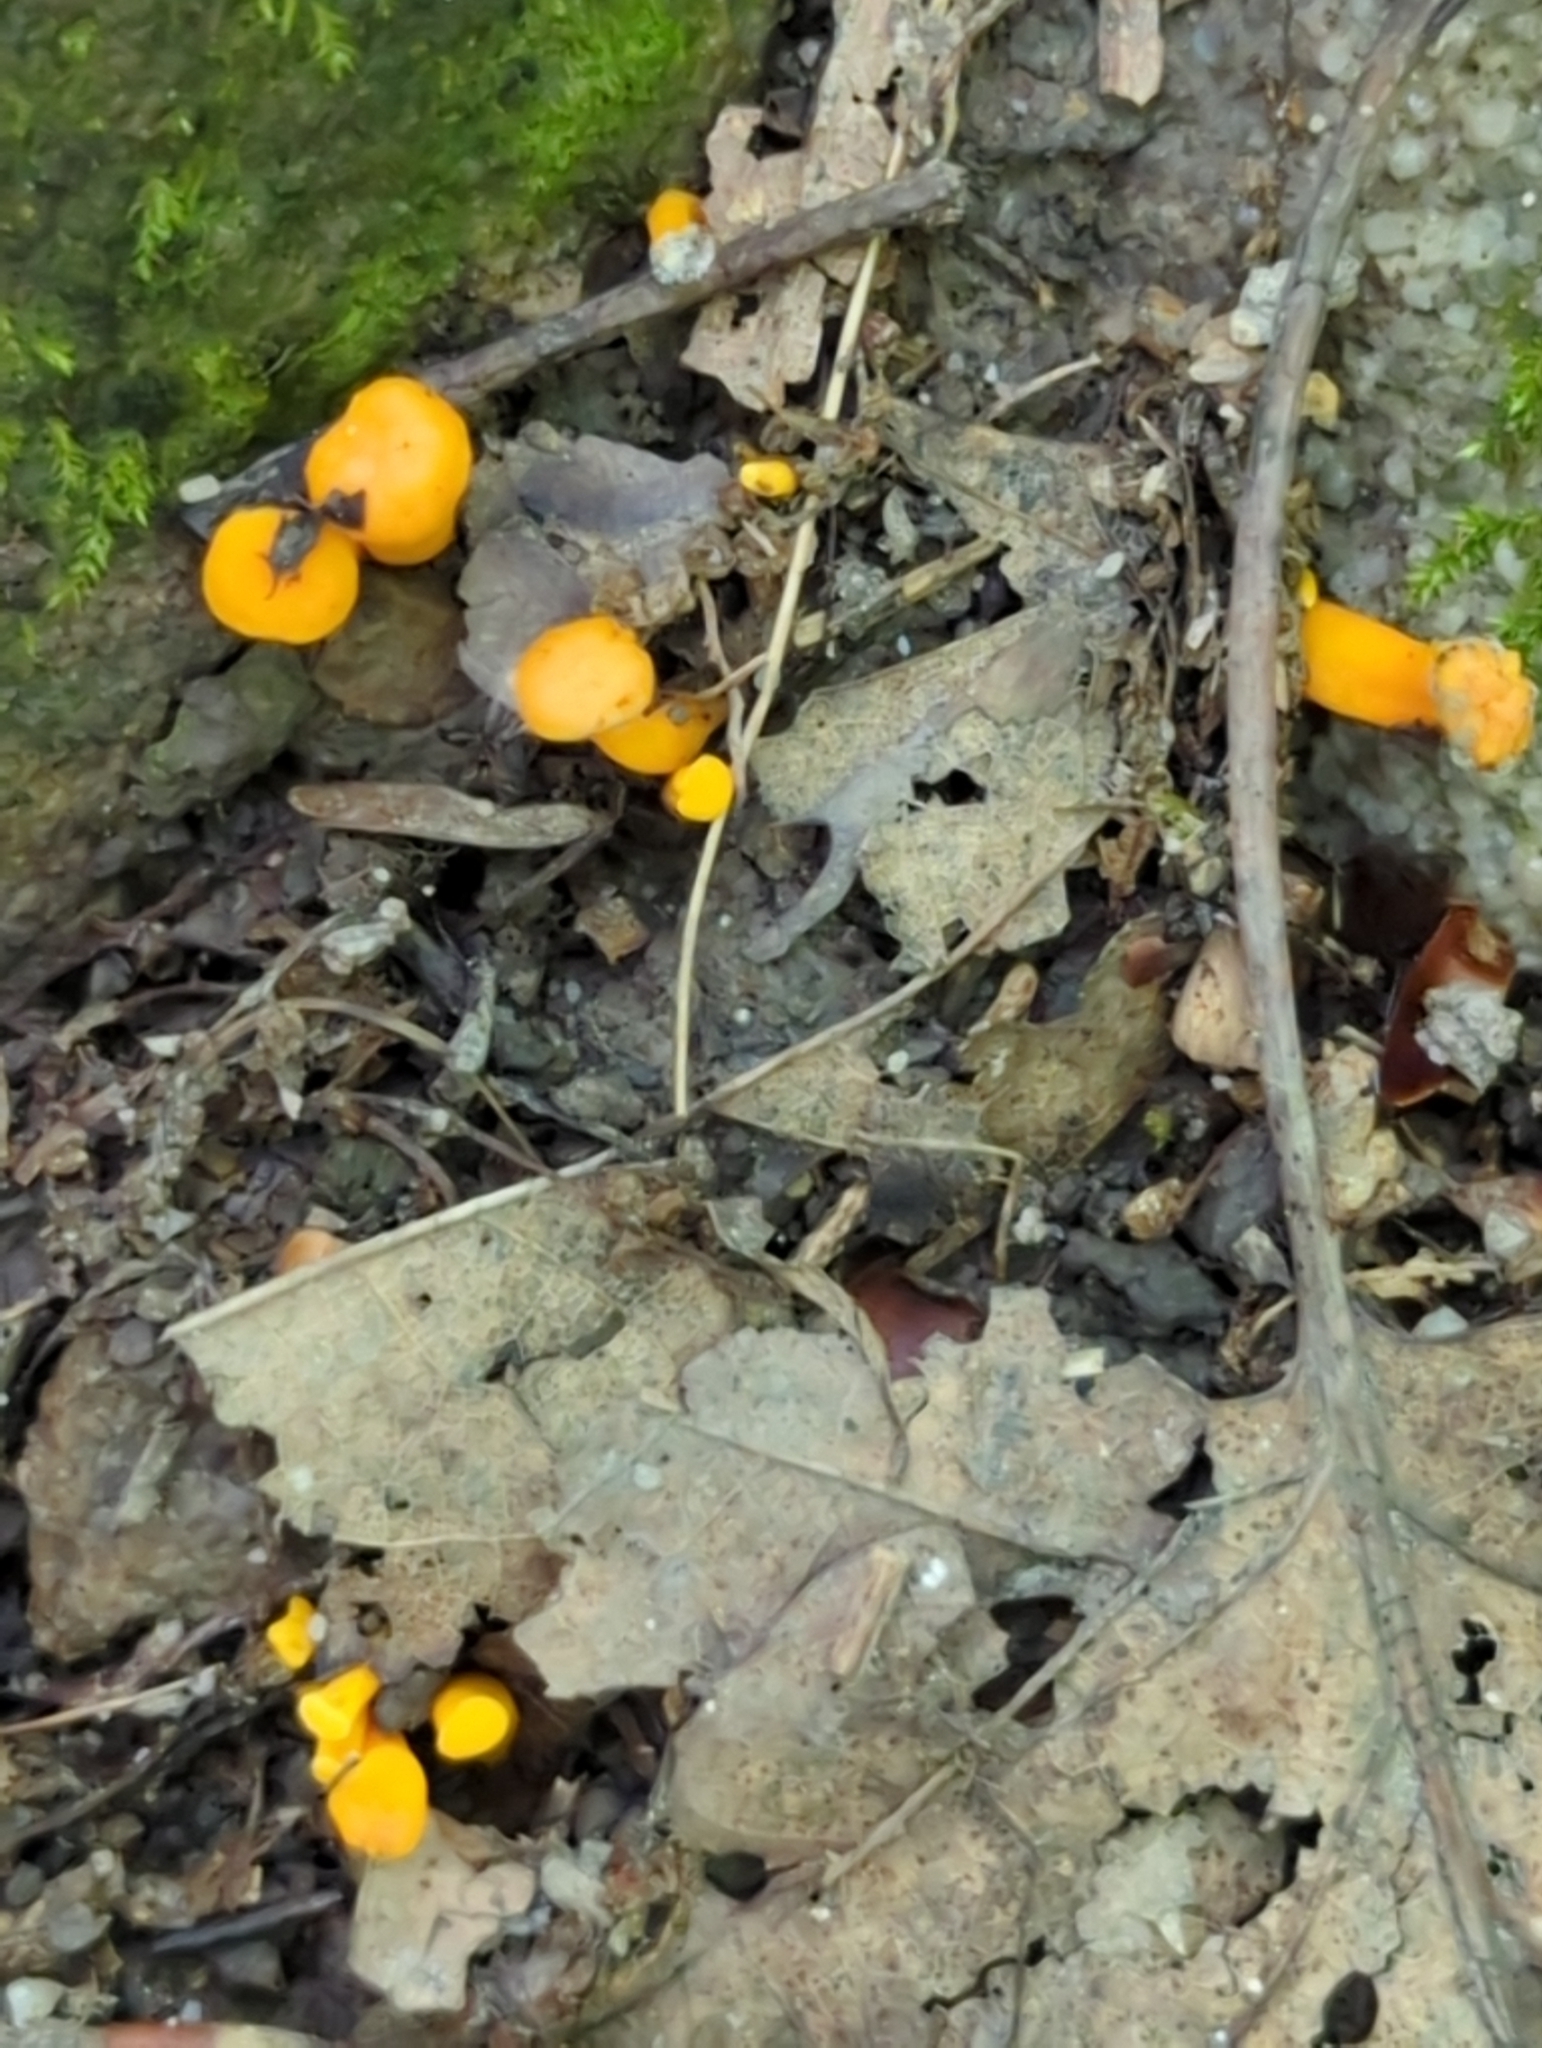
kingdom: Fungi
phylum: Basidiomycota
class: Agaricomycetes
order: Cantharellales
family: Hydnaceae
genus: Cantharellus
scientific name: Cantharellus minor
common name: Small chanterelle
